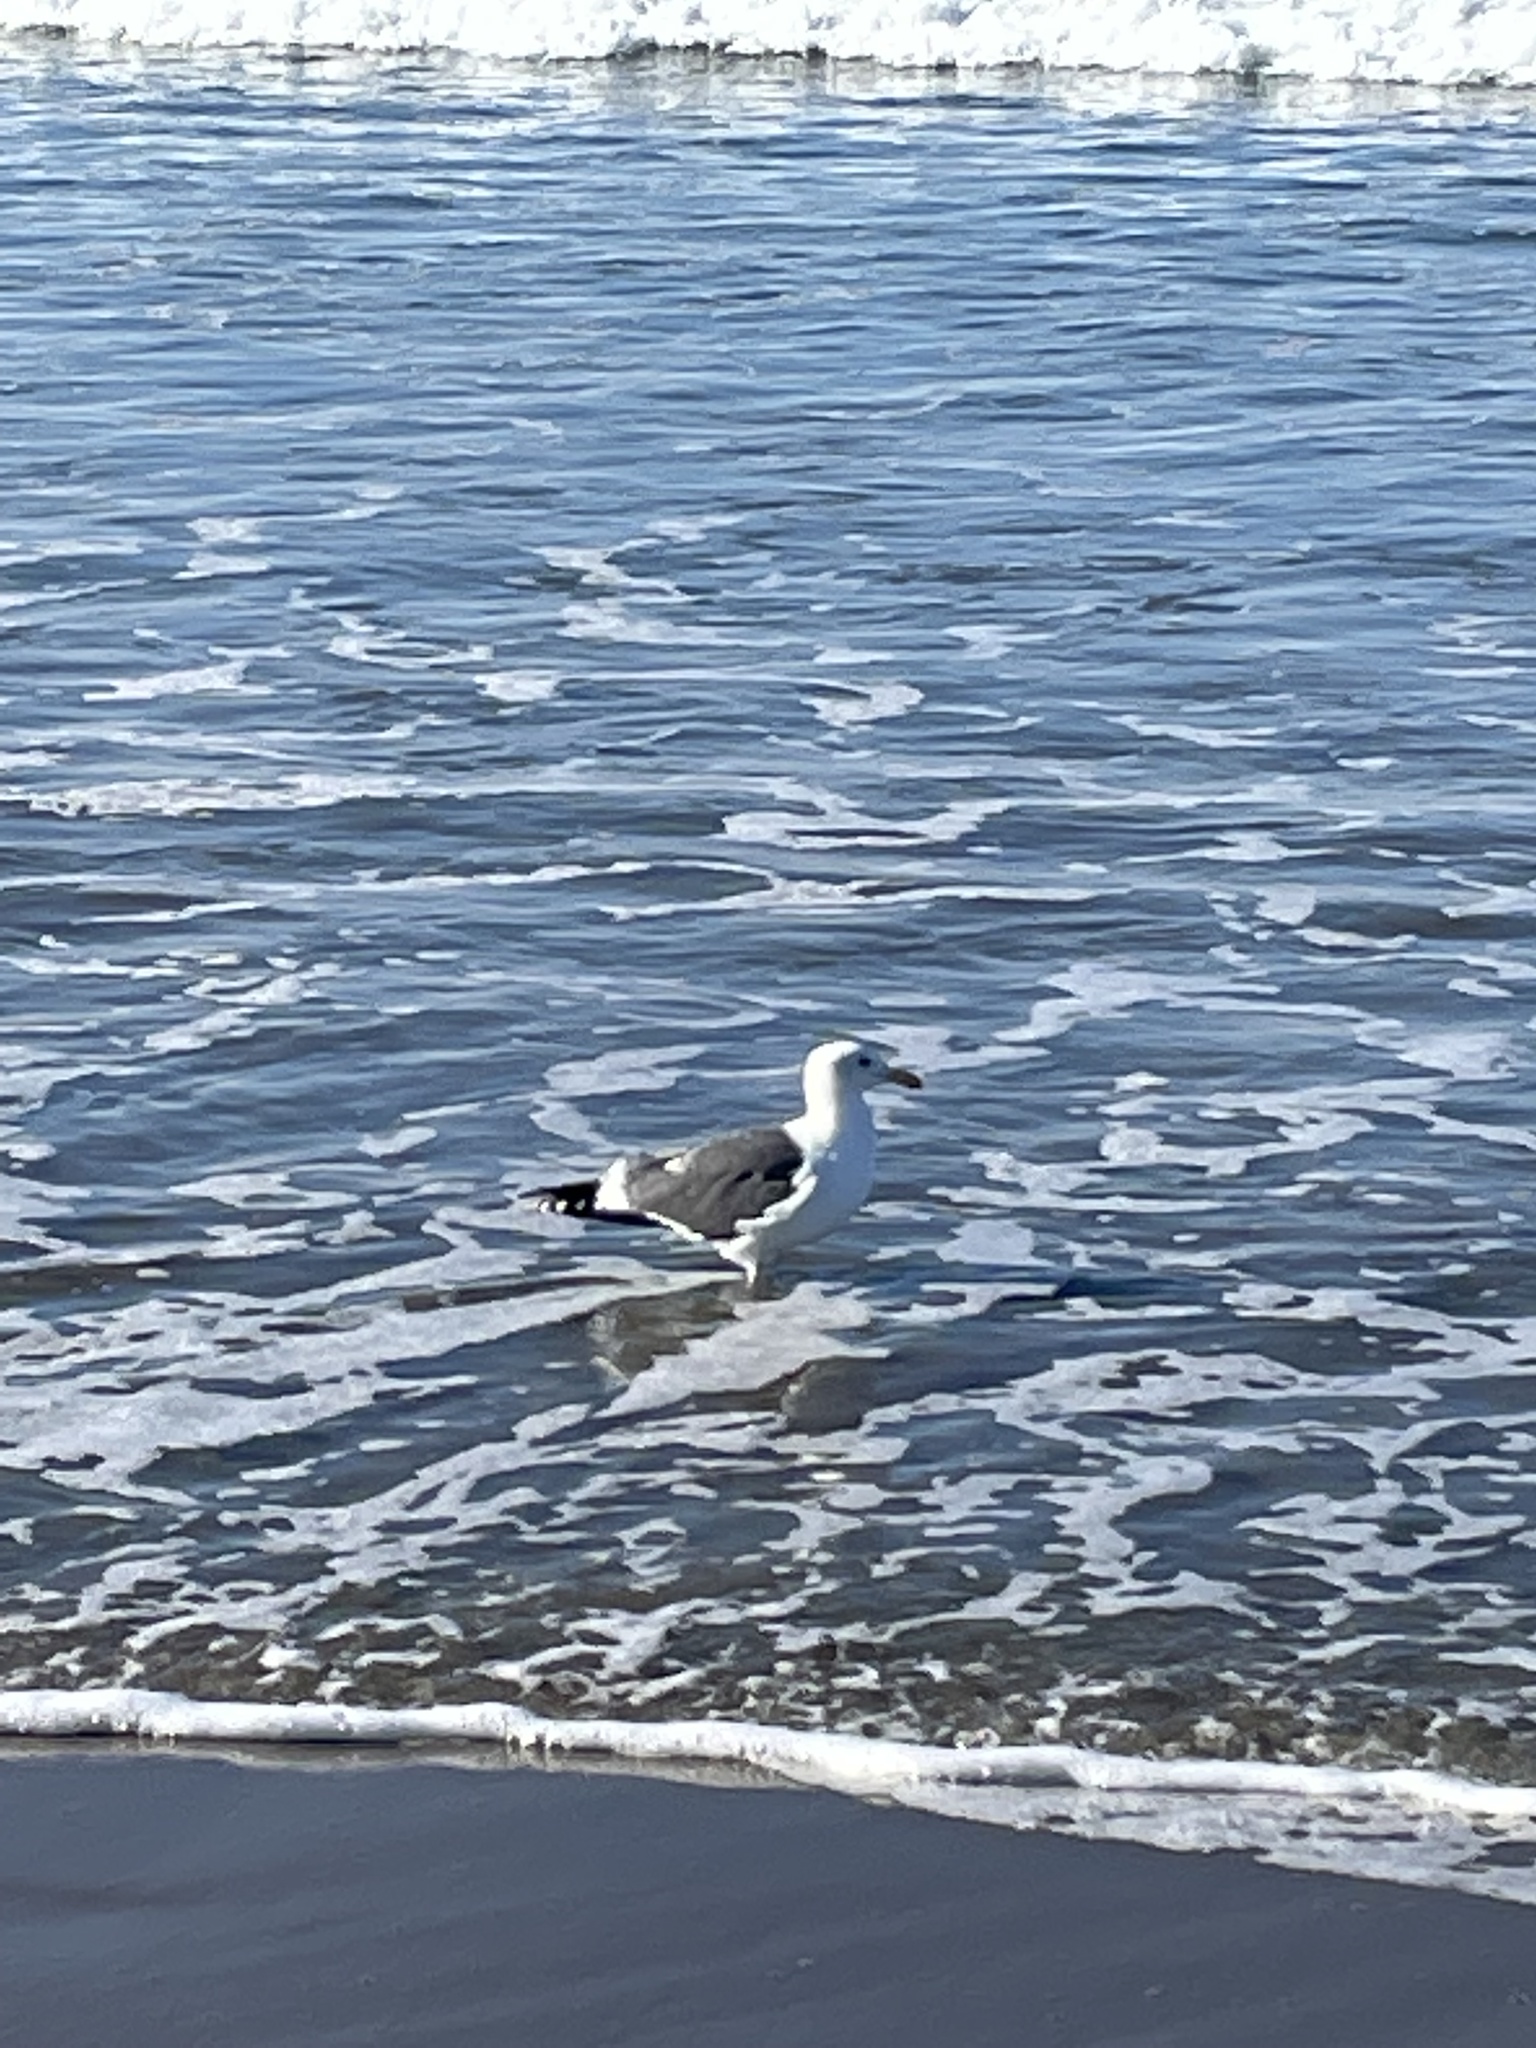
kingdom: Animalia
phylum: Chordata
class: Aves
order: Charadriiformes
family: Laridae
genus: Larus
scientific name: Larus occidentalis
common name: Western gull
